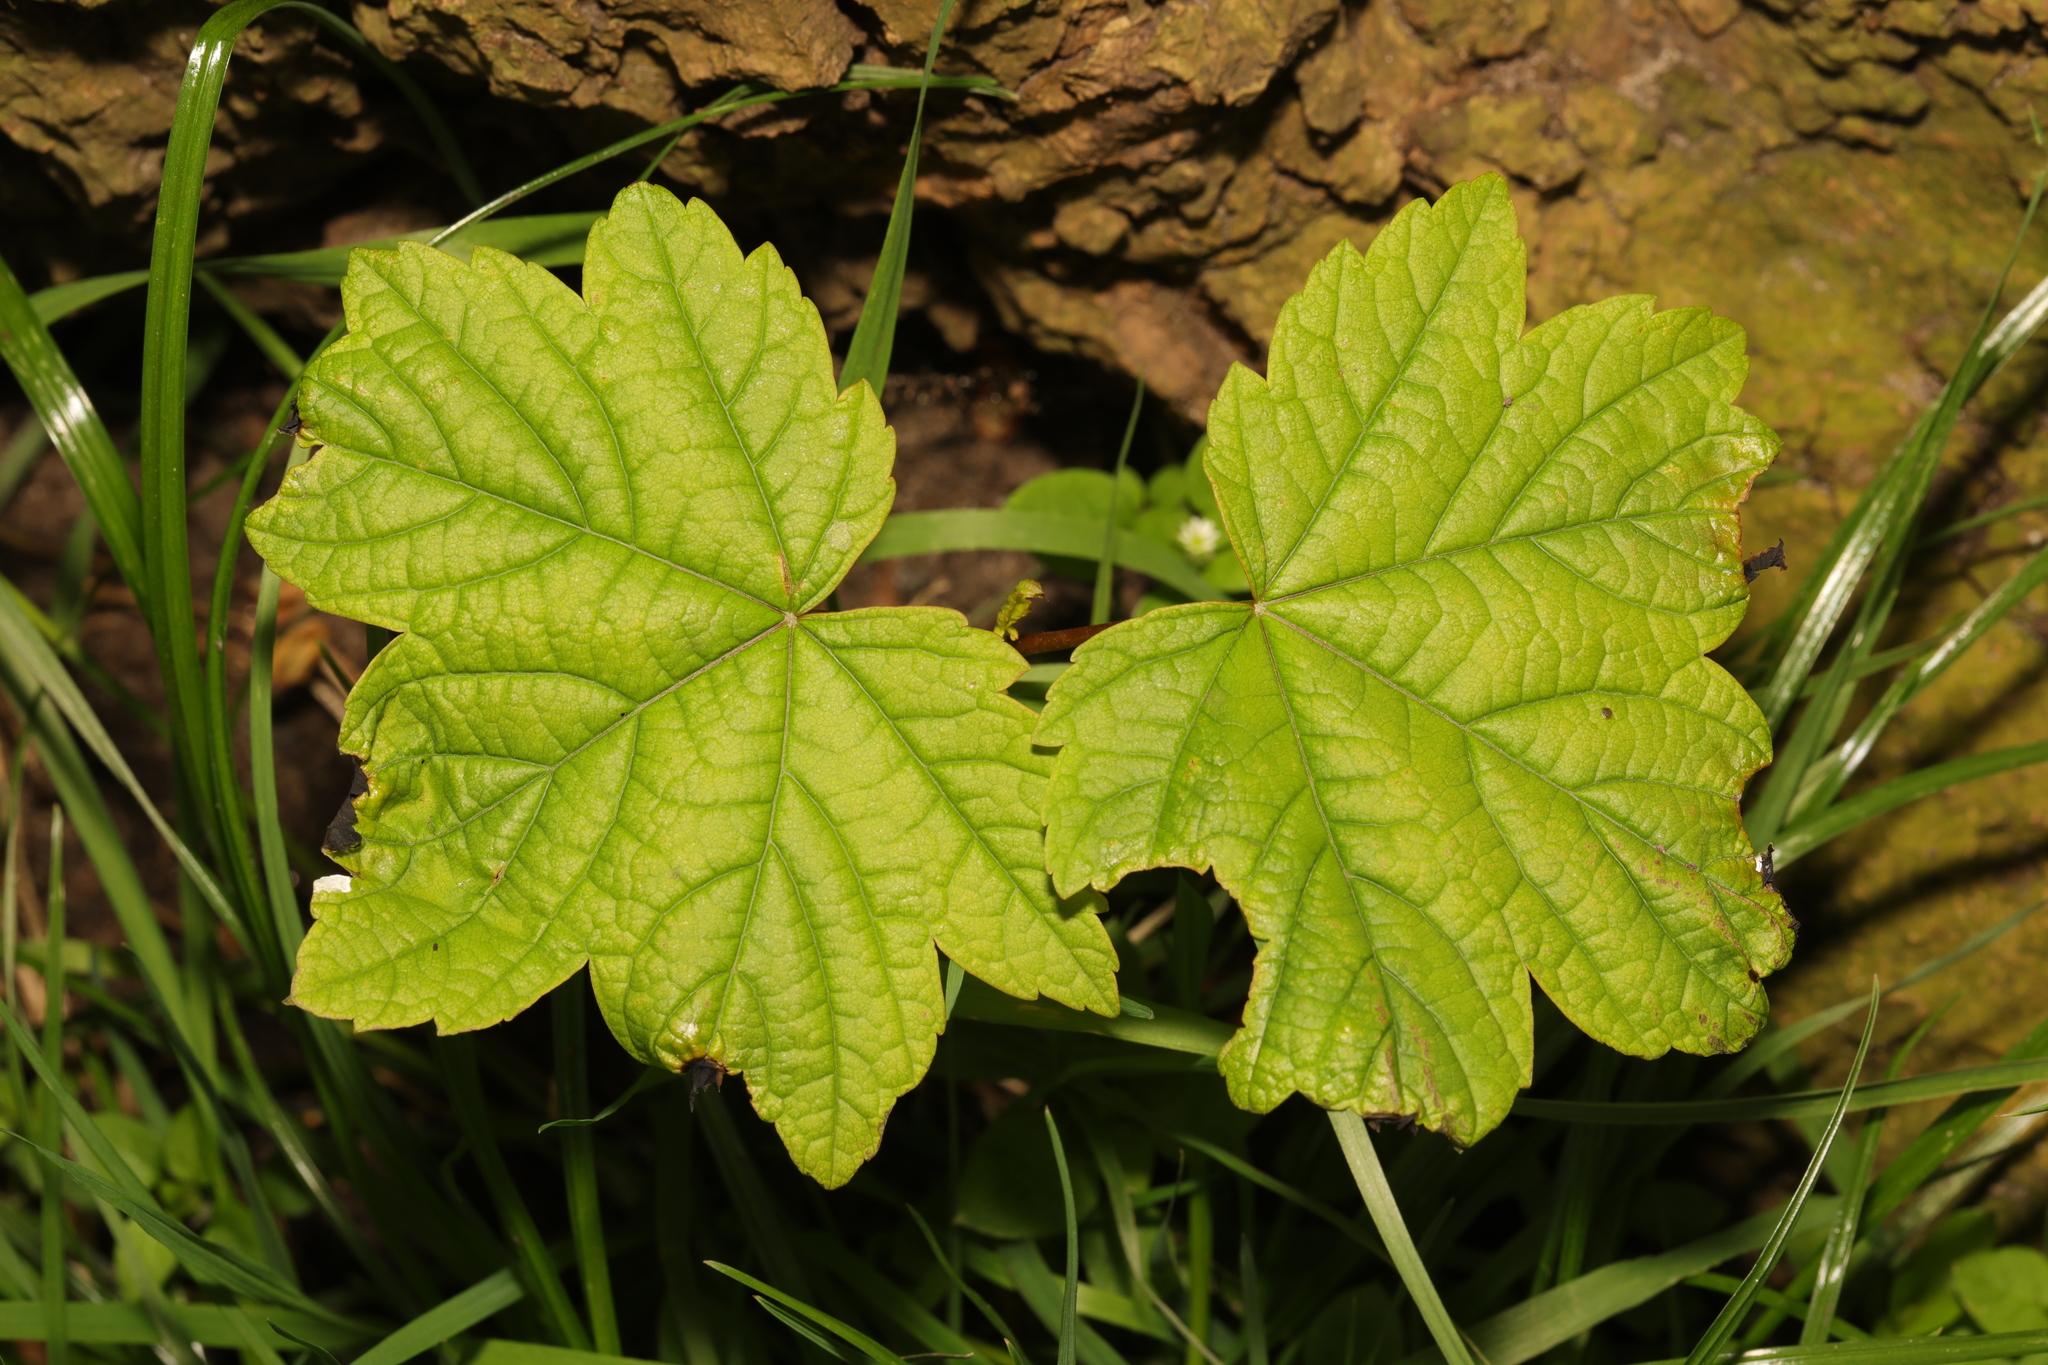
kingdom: Plantae
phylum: Tracheophyta
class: Magnoliopsida
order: Sapindales
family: Sapindaceae
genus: Acer
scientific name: Acer pseudoplatanus
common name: Sycamore
